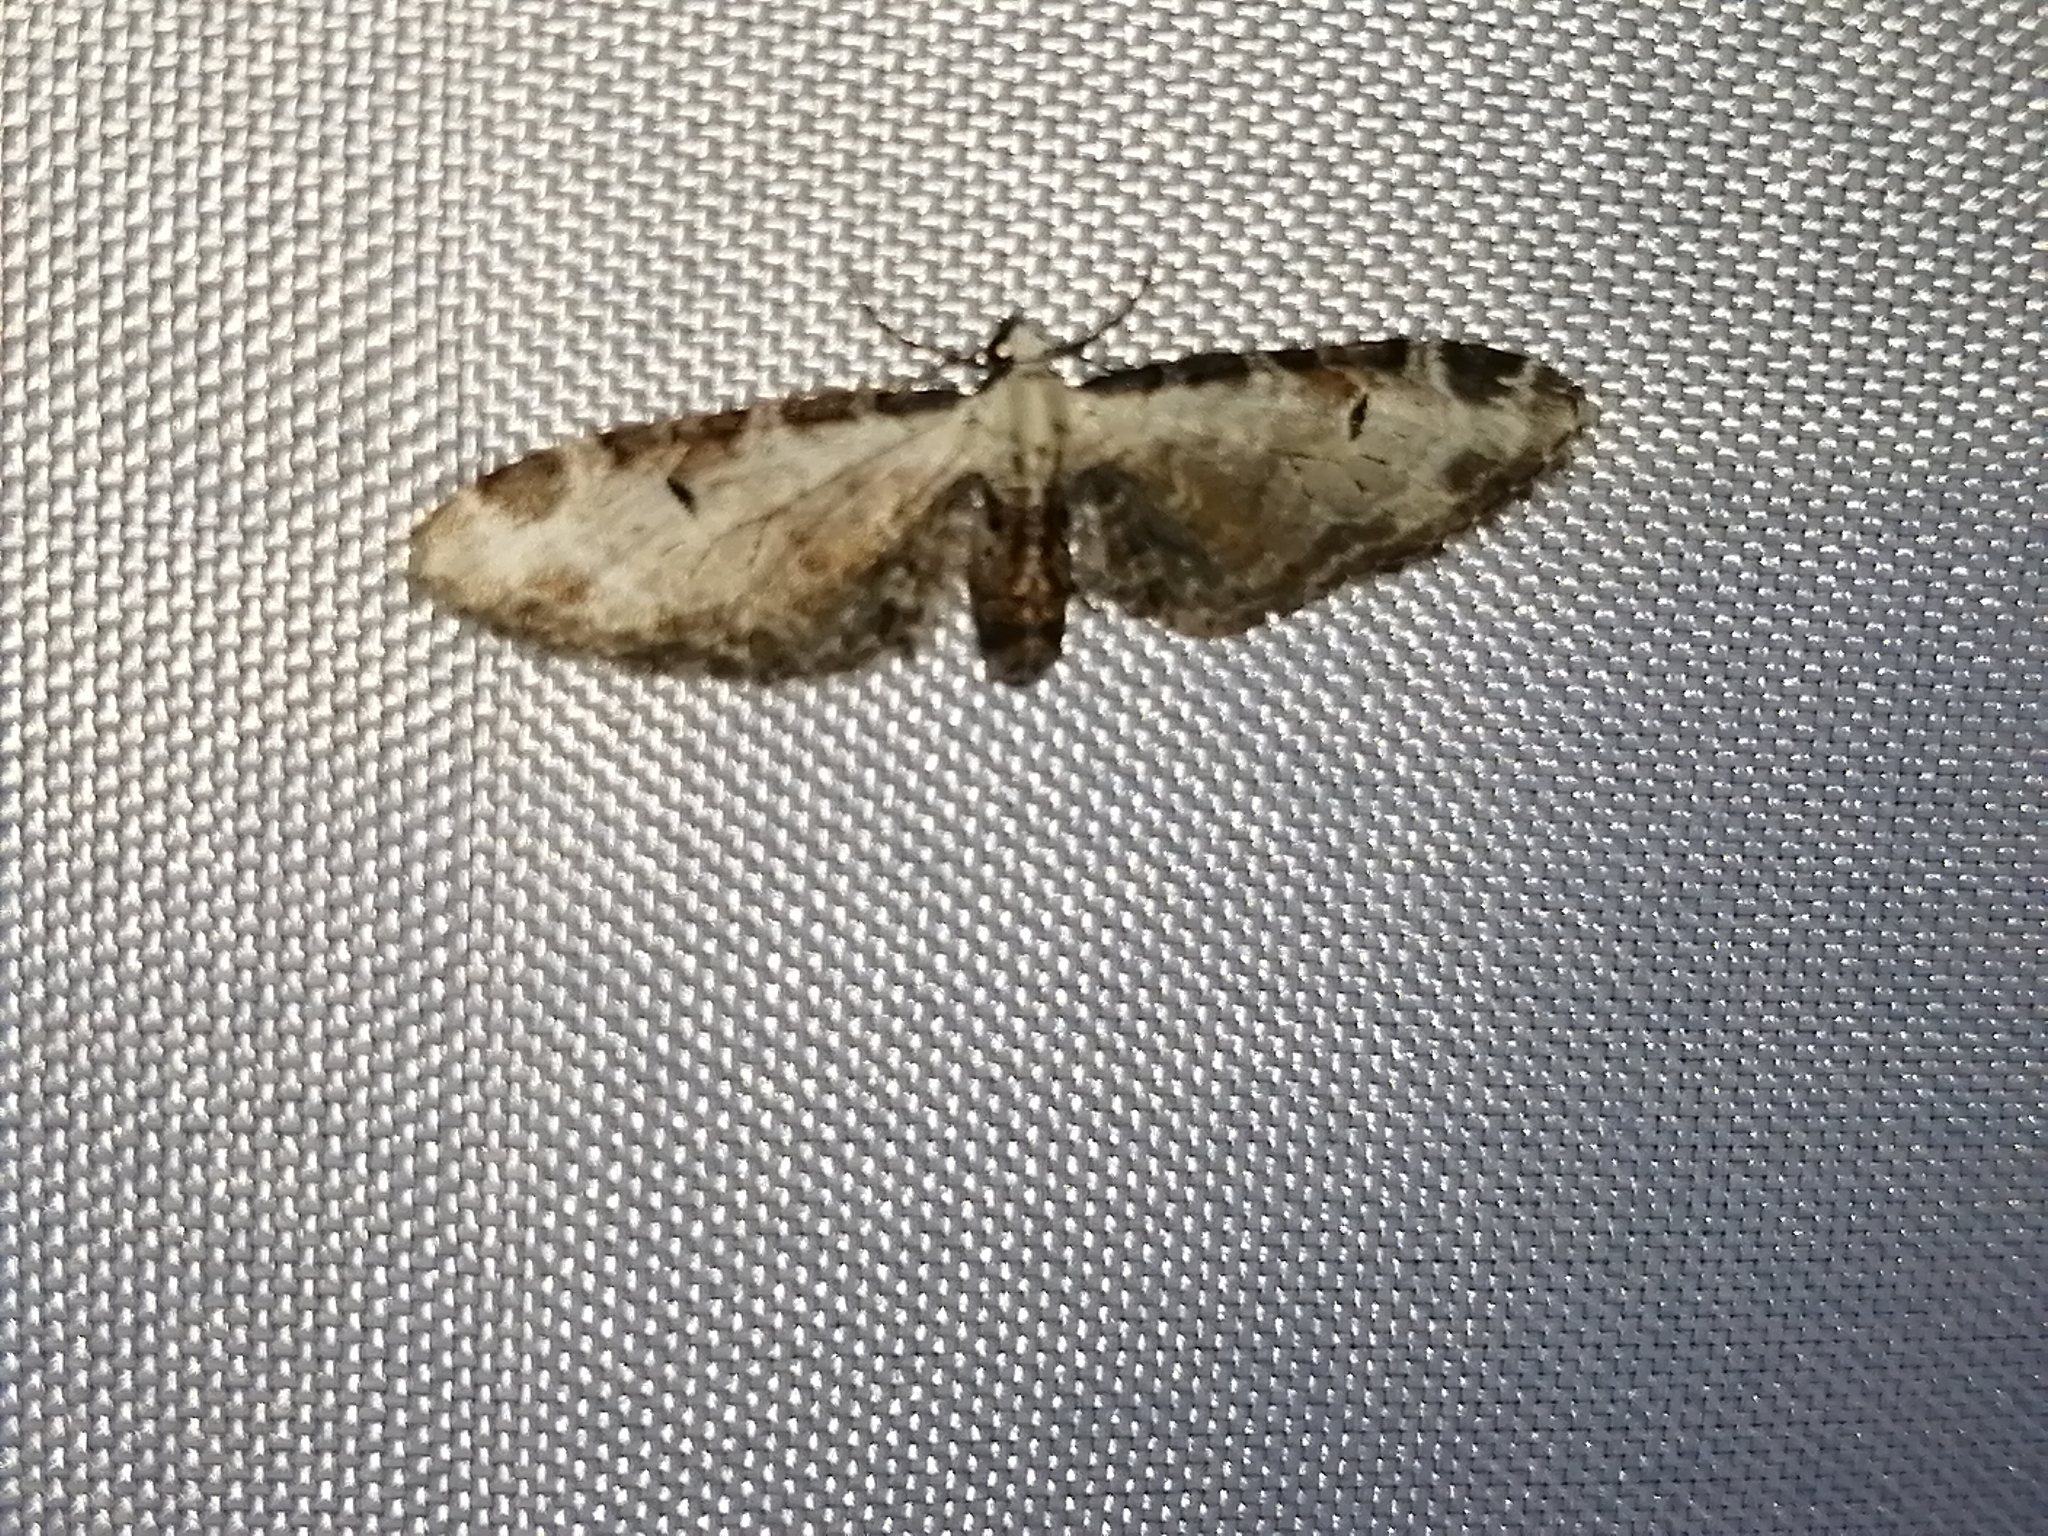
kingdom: Animalia
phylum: Arthropoda
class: Insecta
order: Lepidoptera
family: Geometridae
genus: Eupithecia
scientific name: Eupithecia ravocostaliata
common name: Great varigated pug
